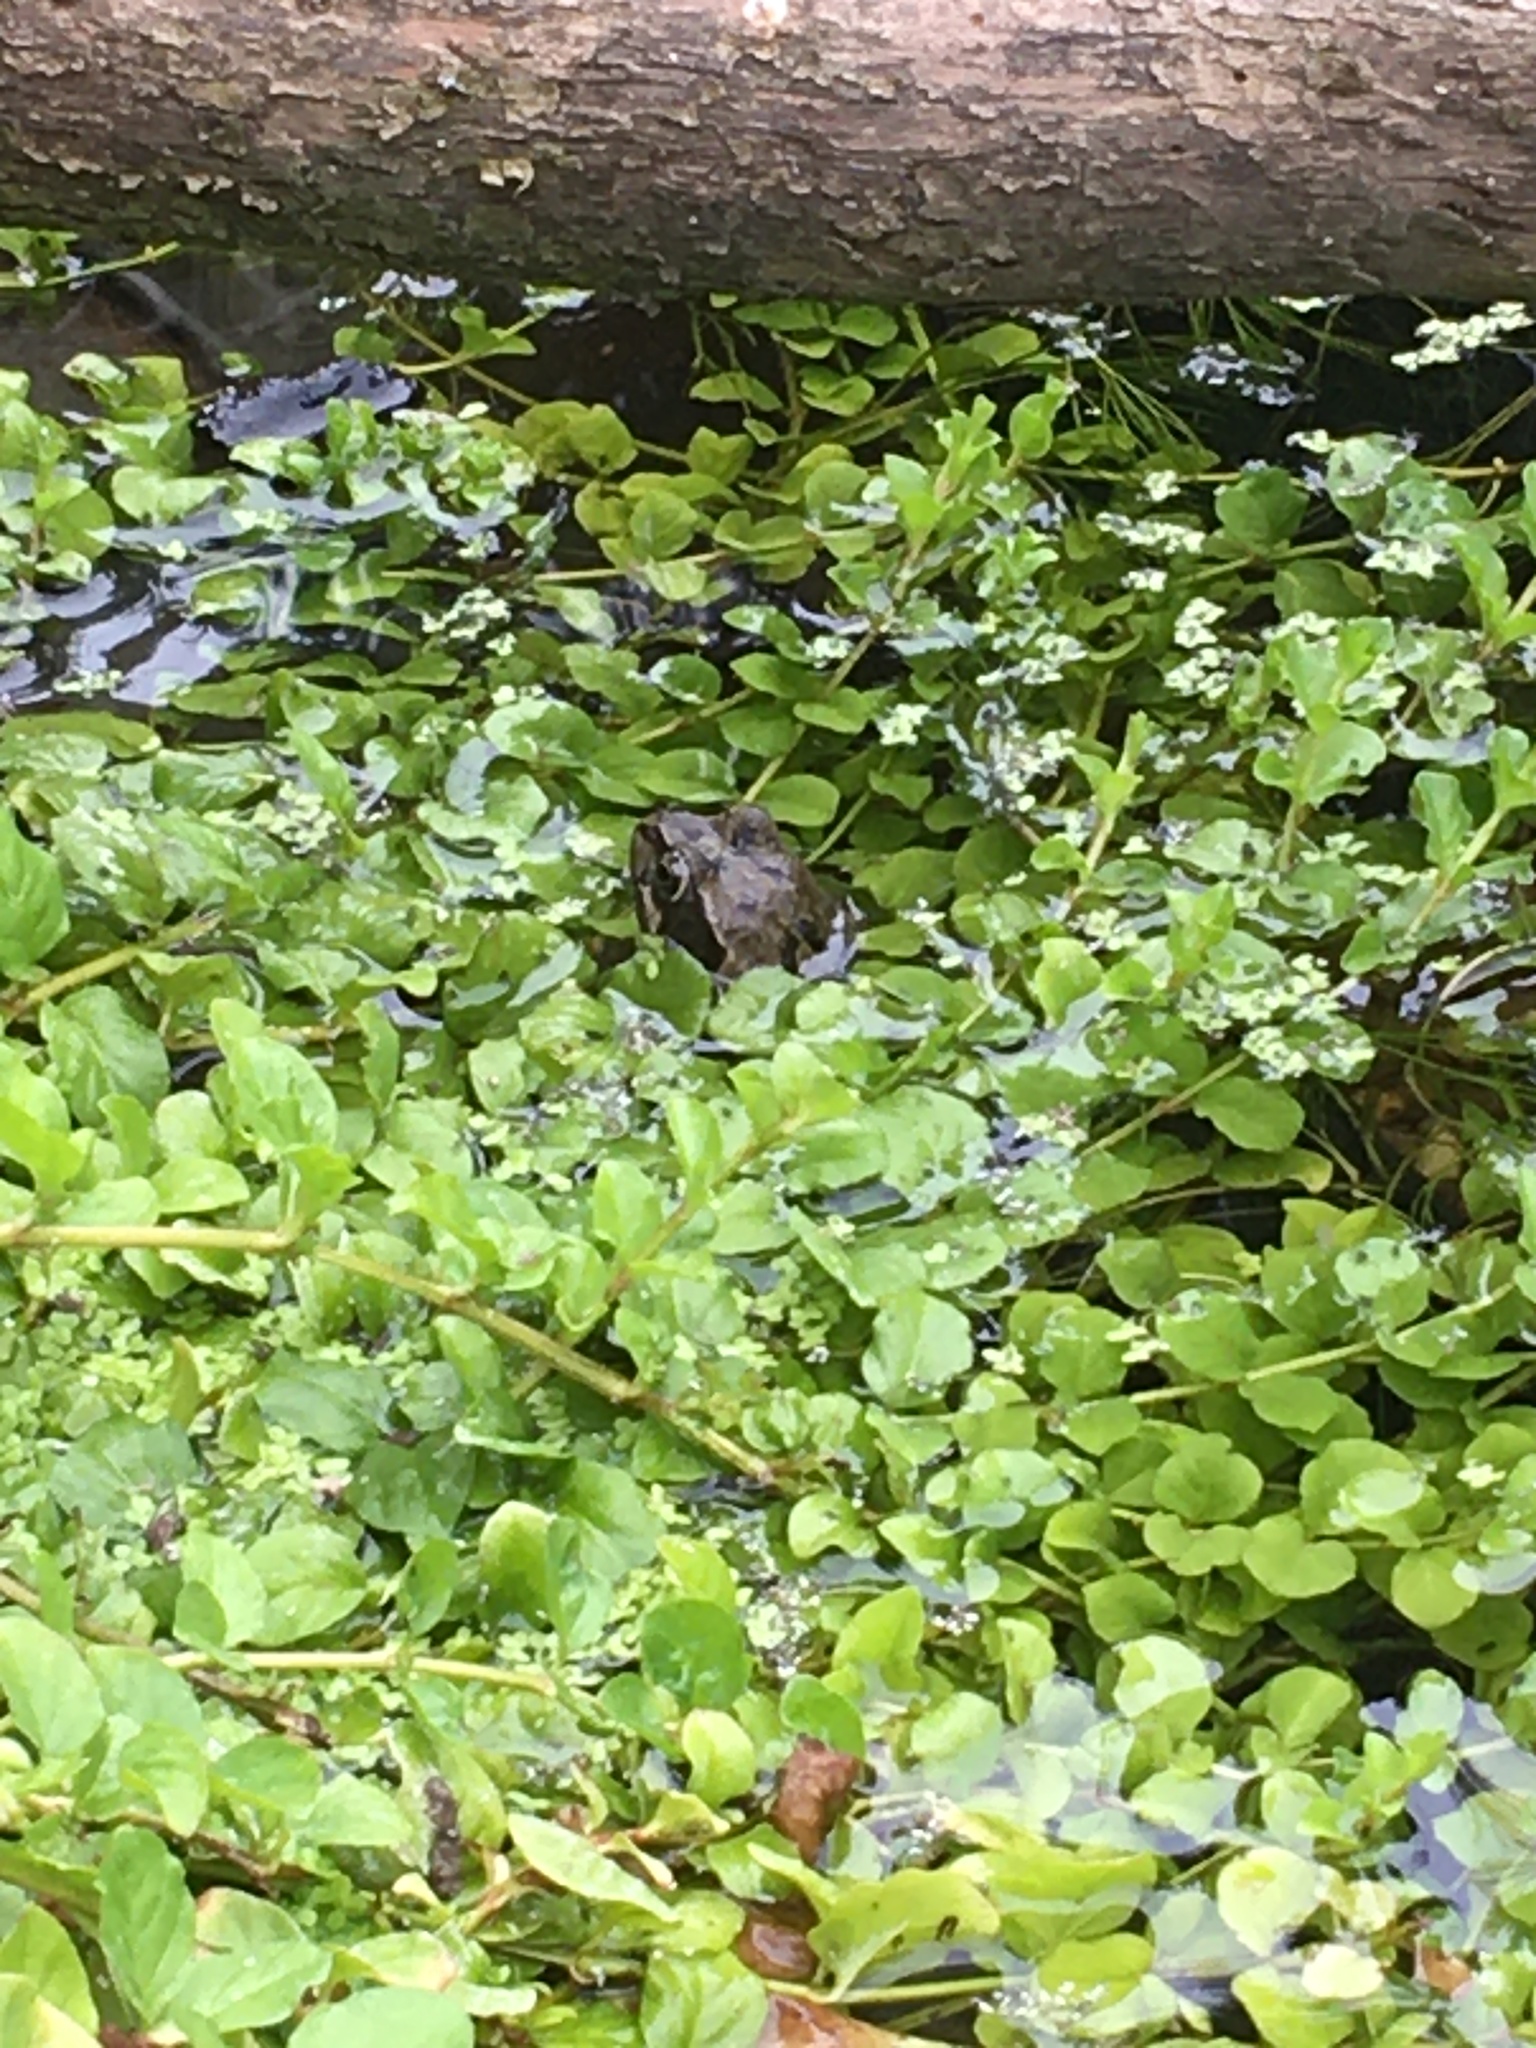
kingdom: Animalia
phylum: Chordata
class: Amphibia
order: Anura
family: Ranidae
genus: Rana
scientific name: Rana temporaria
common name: Common frog
